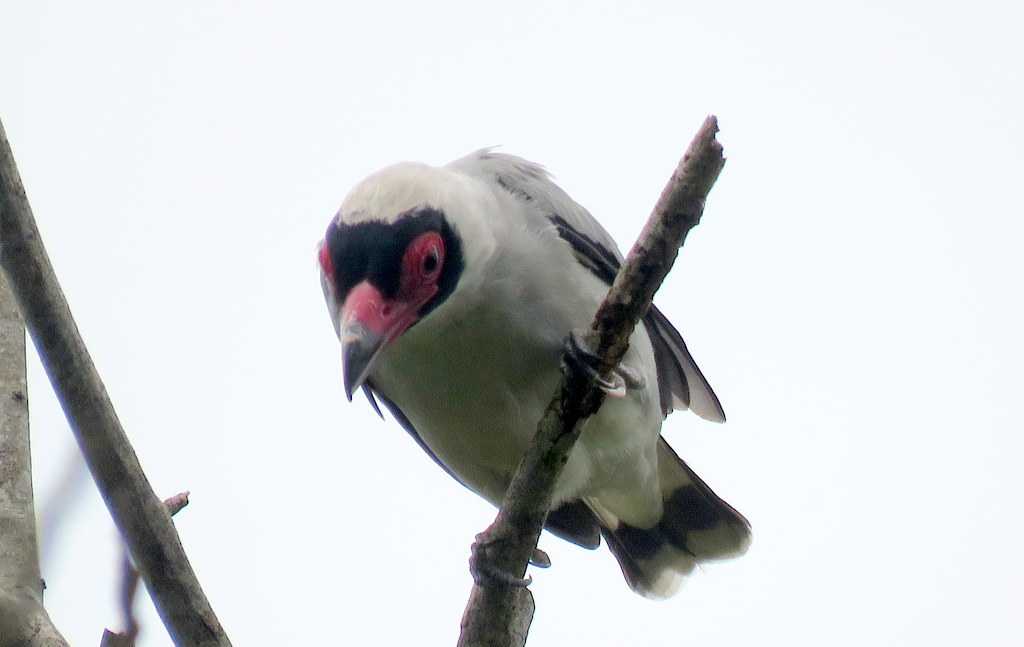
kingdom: Animalia
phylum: Chordata
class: Aves
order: Passeriformes
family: Cotingidae
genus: Tityra
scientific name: Tityra semifasciata
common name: Masked tityra
